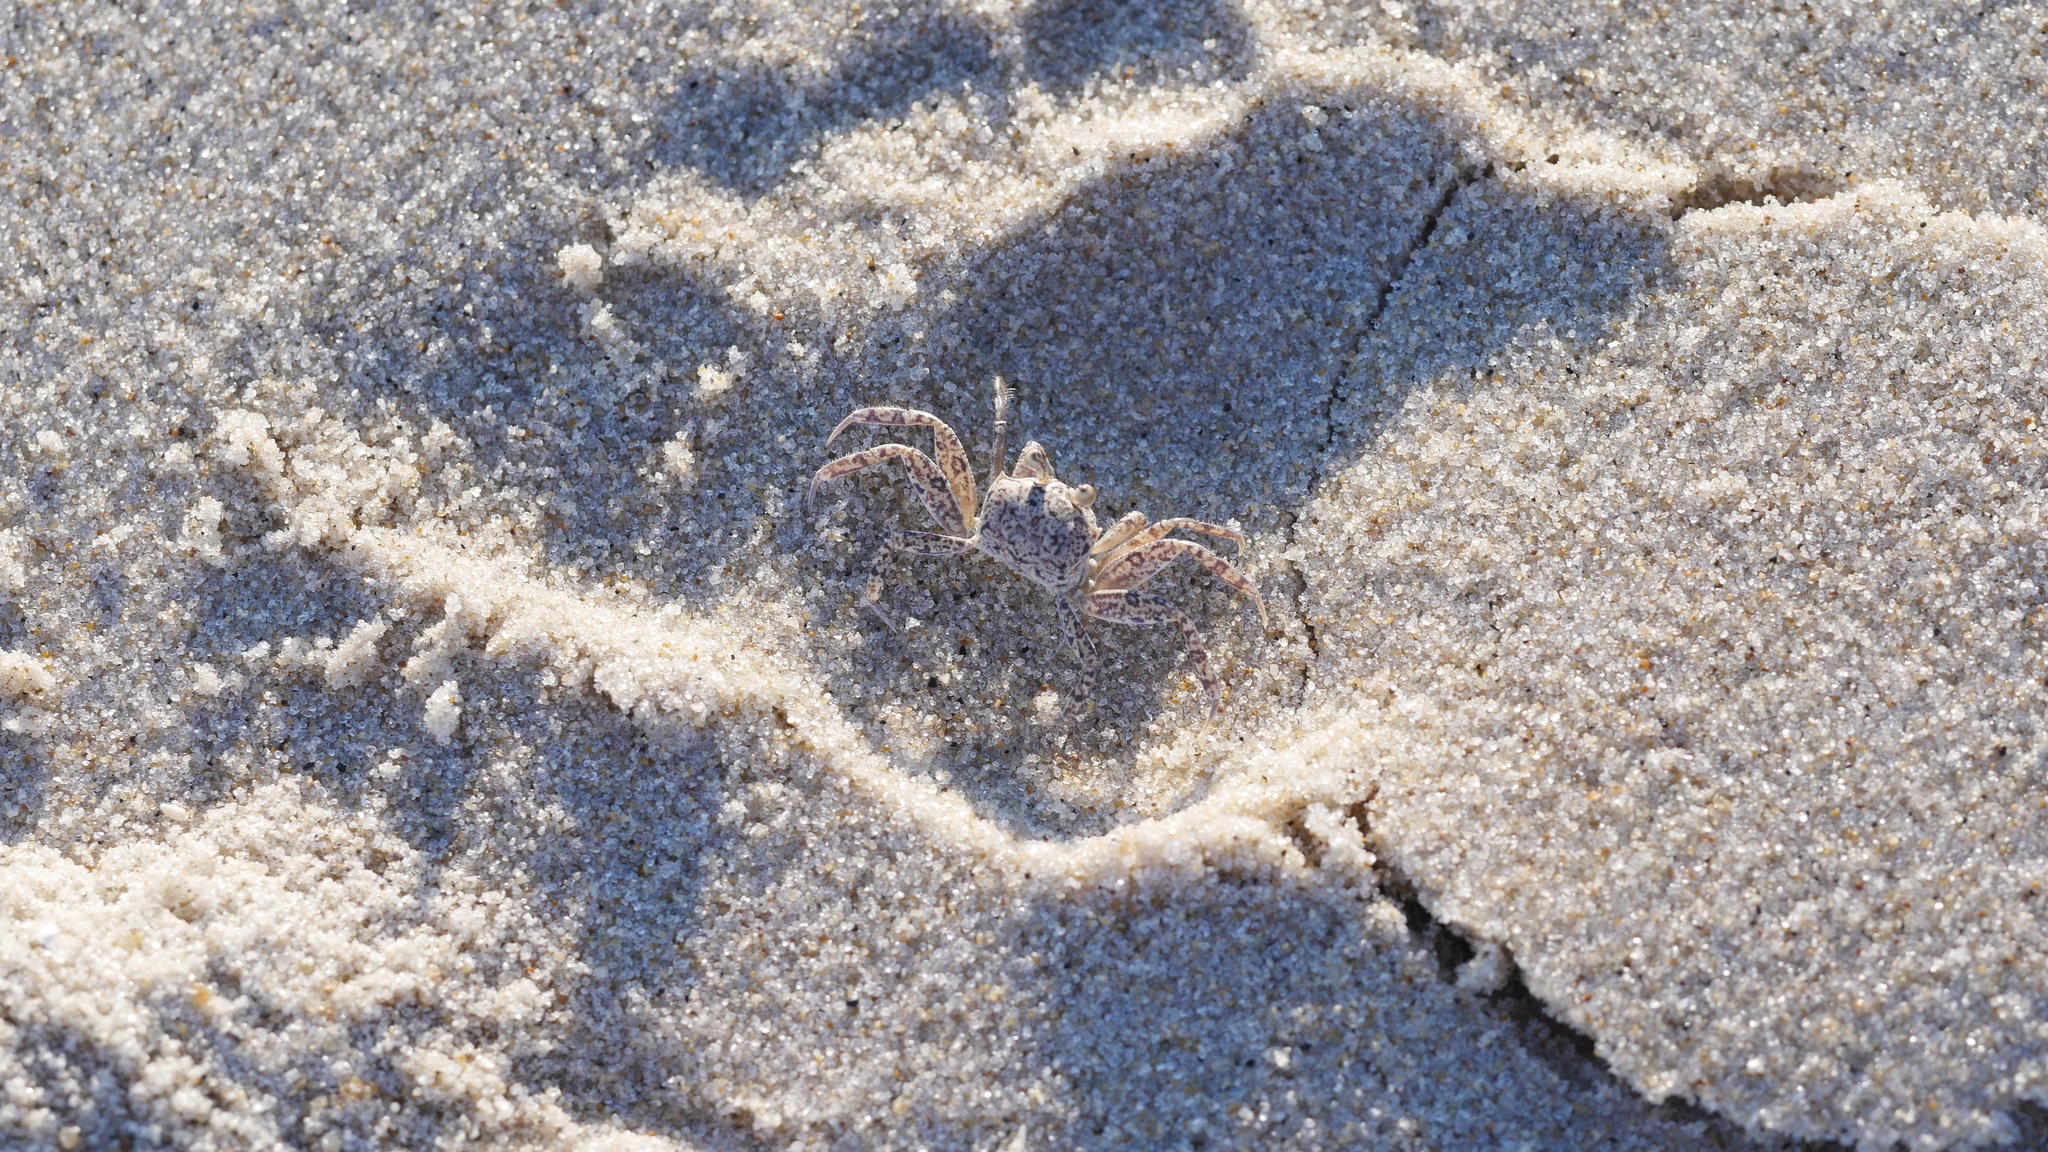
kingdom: Animalia
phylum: Arthropoda
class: Malacostraca
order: Decapoda
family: Ocypodidae
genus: Ocypode
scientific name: Ocypode quadrata
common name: Ghost crab
